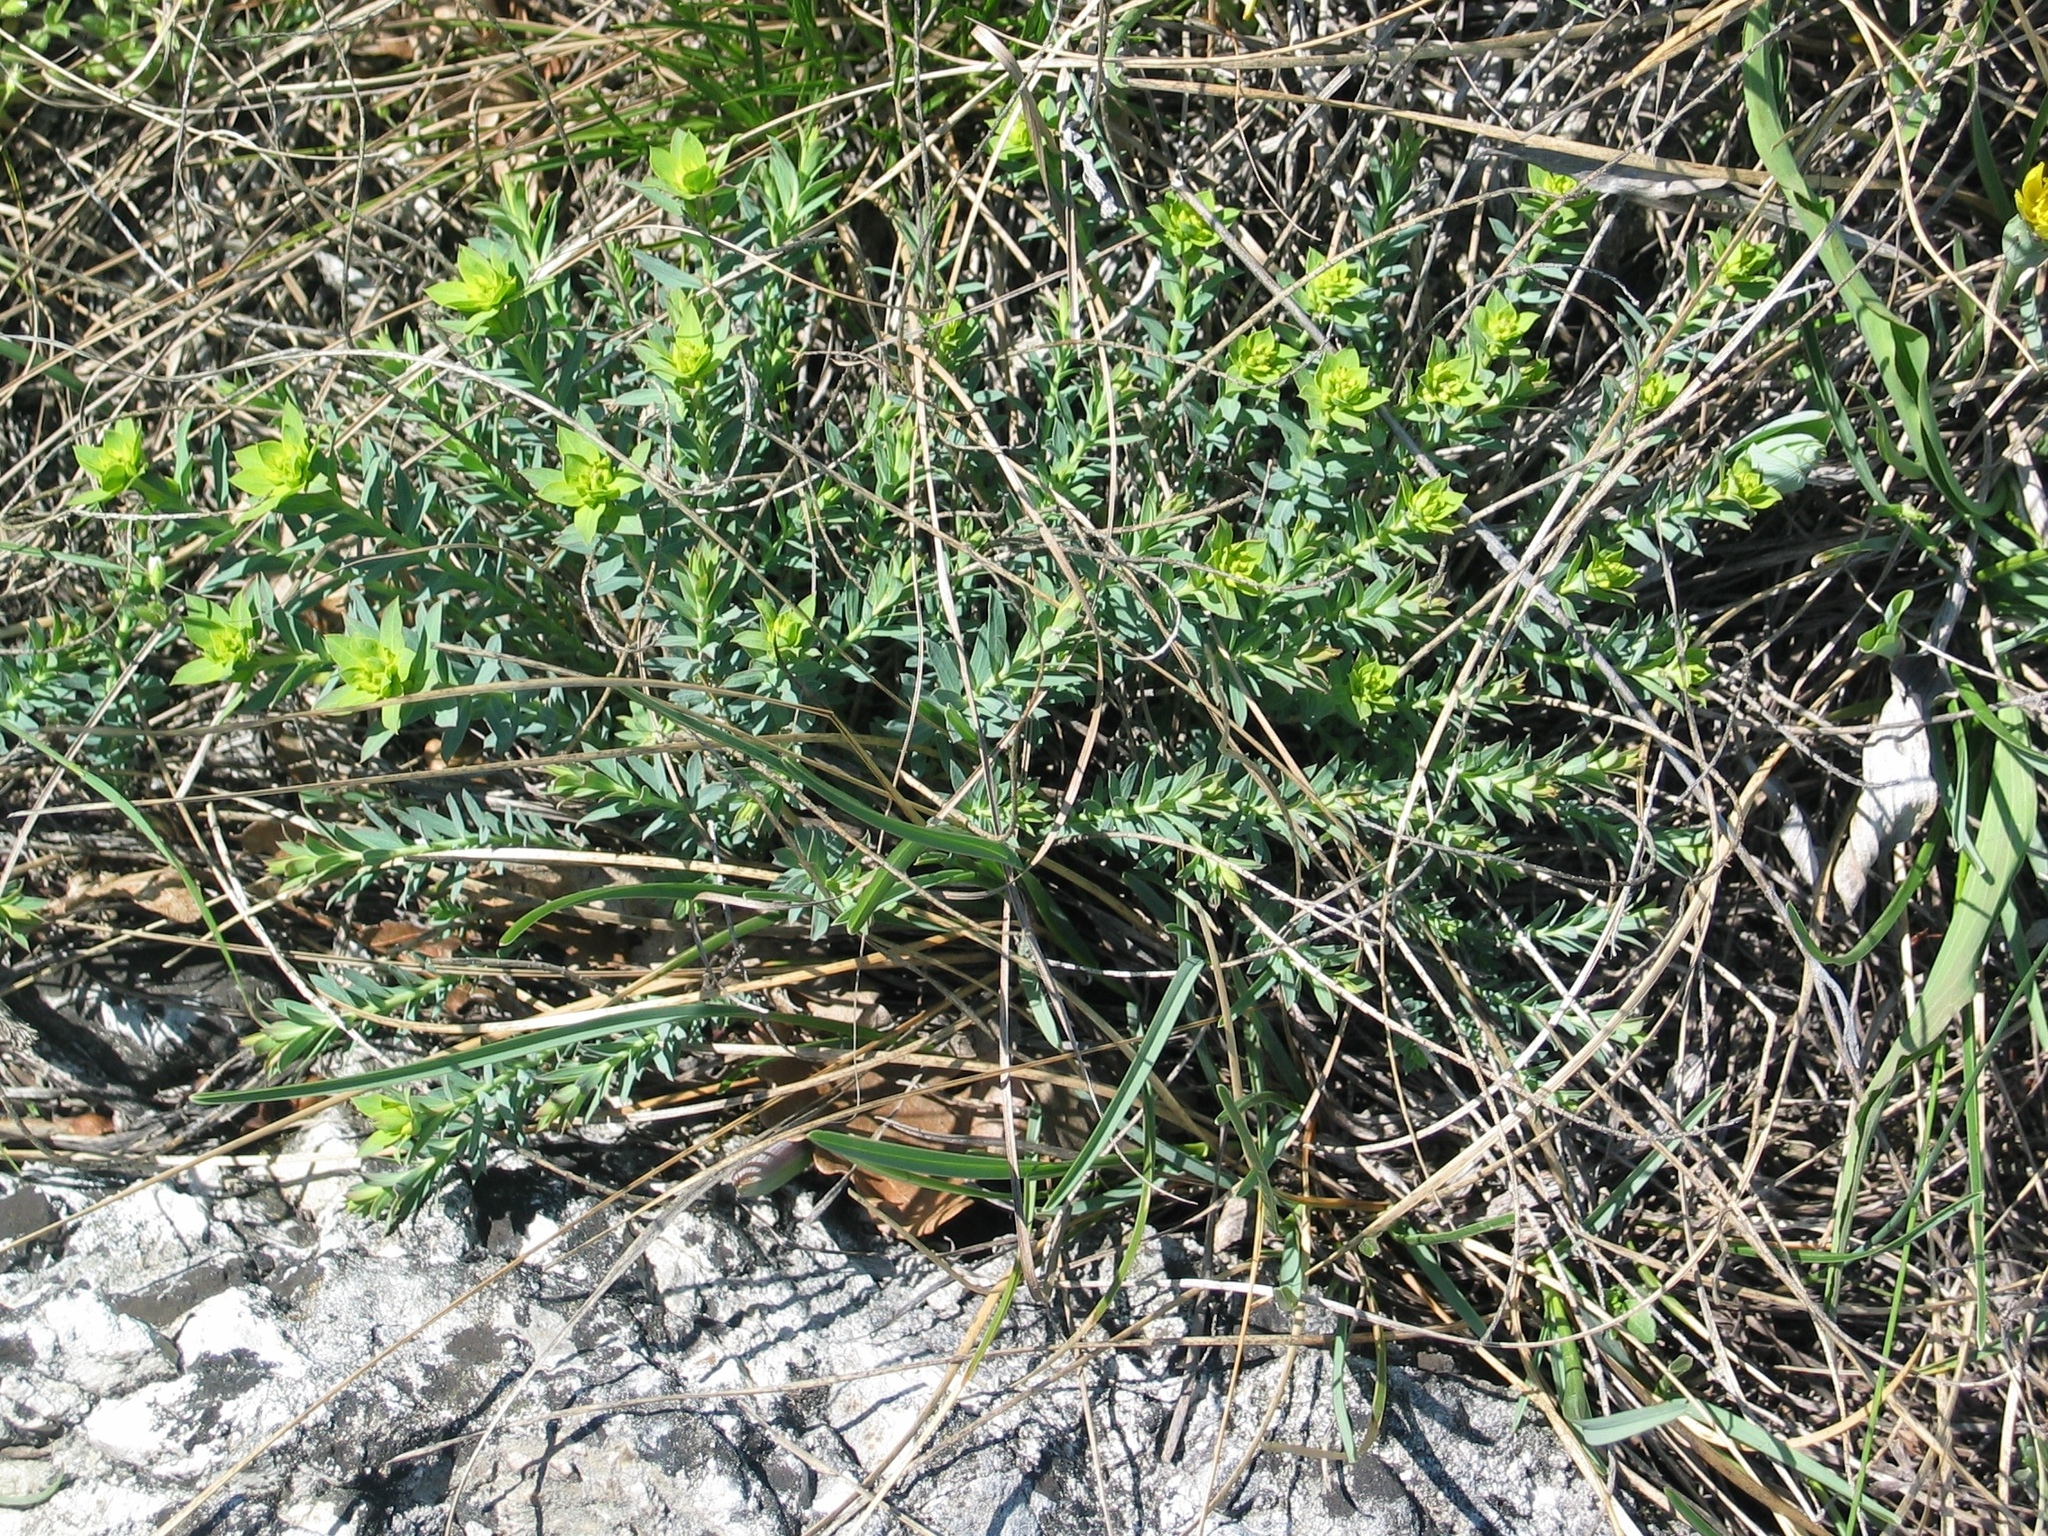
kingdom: Plantae
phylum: Tracheophyta
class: Magnoliopsida
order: Malpighiales
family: Euphorbiaceae
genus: Euphorbia
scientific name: Euphorbia seguieriana
